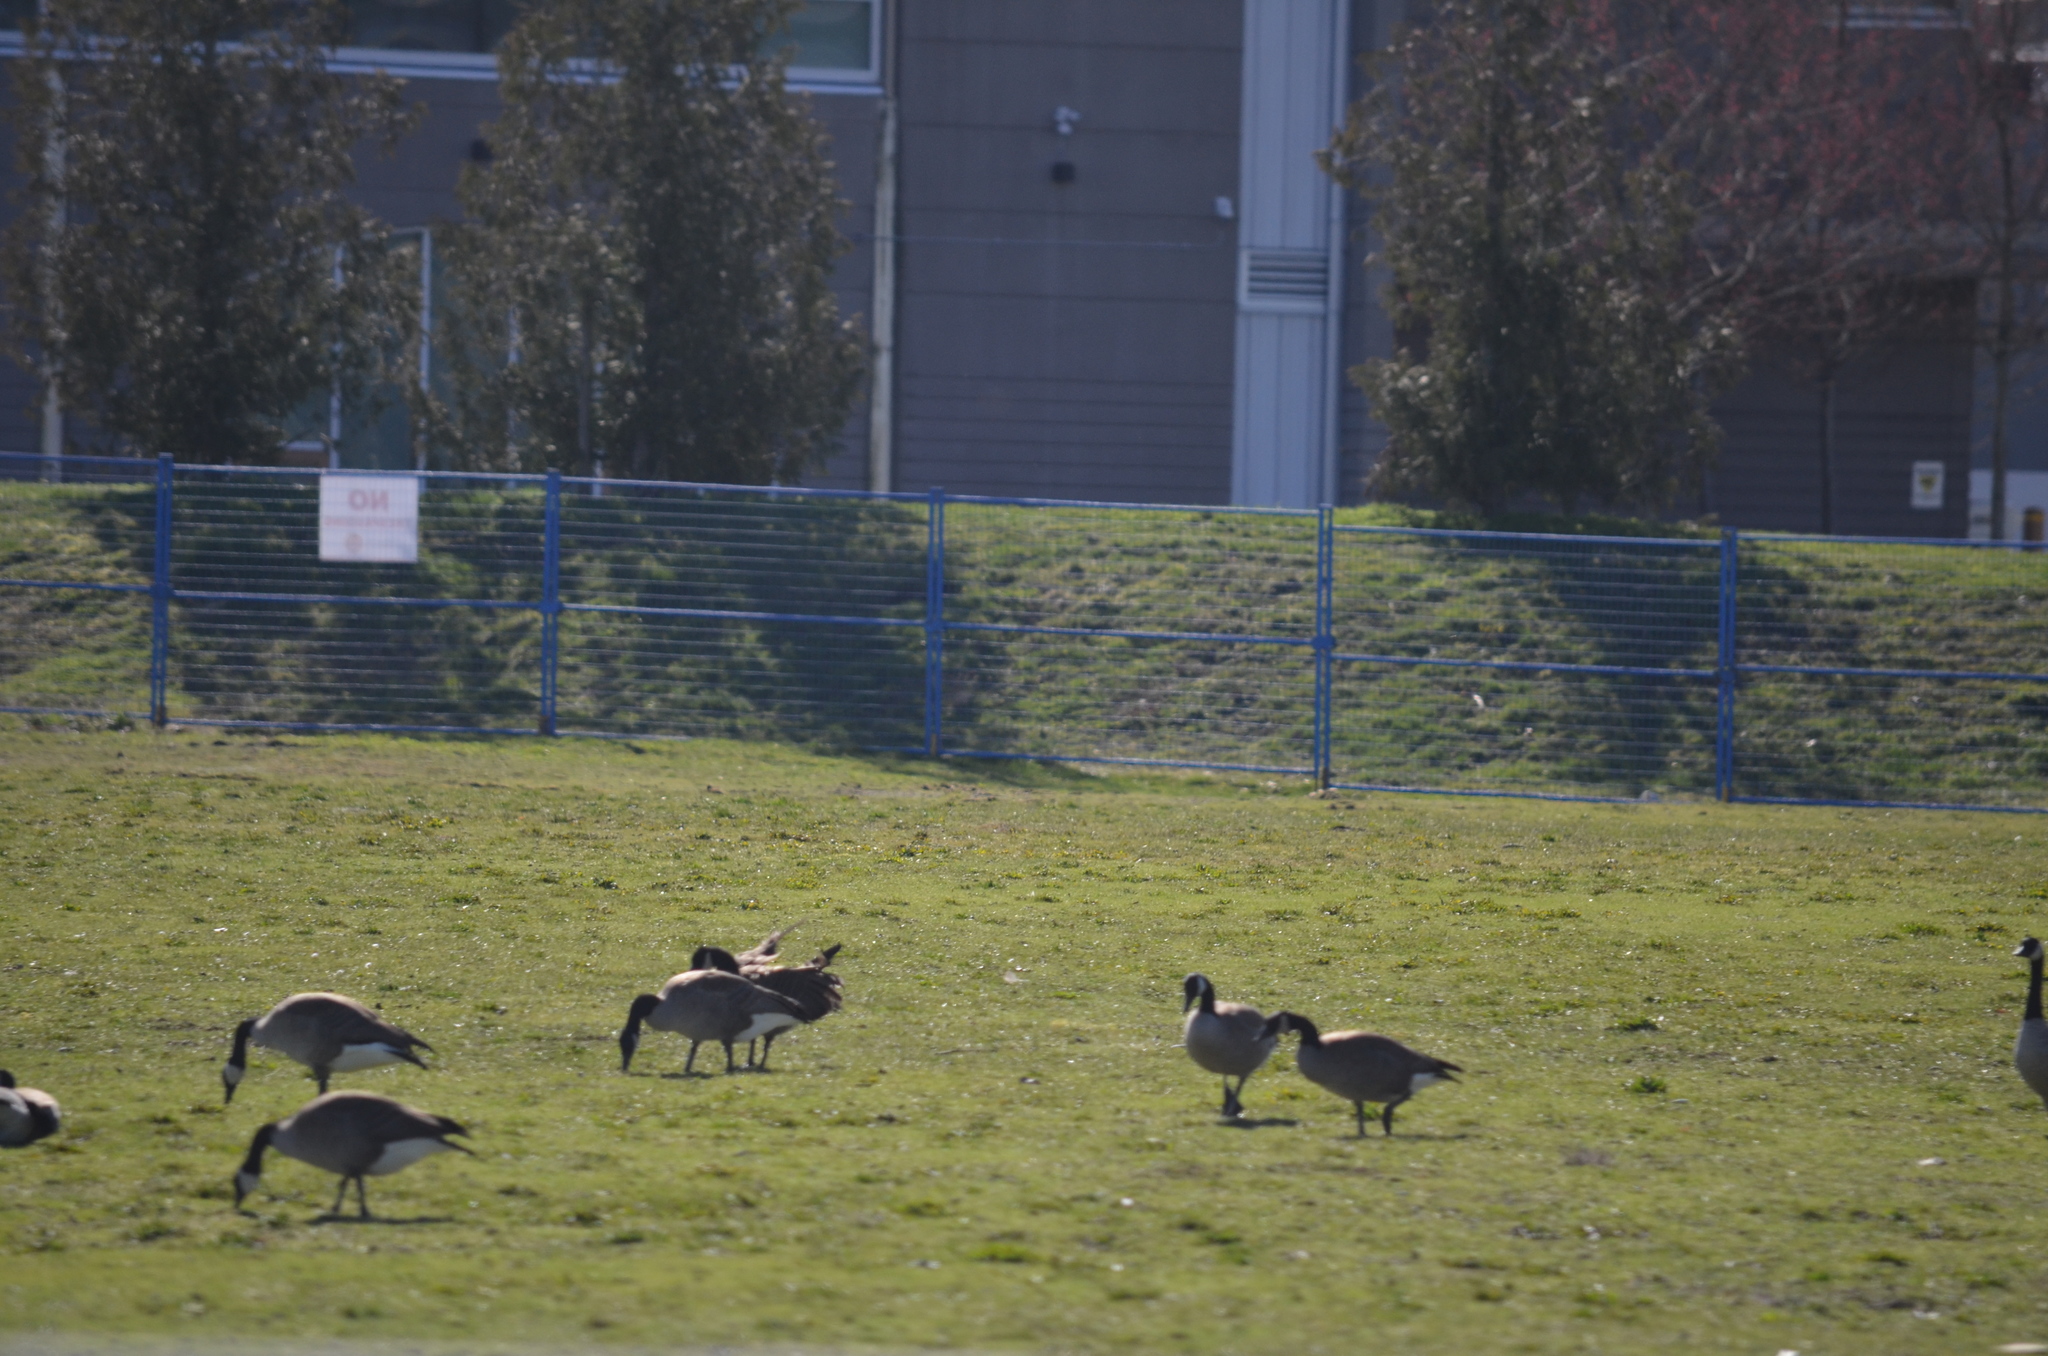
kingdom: Animalia
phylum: Chordata
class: Aves
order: Anseriformes
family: Anatidae
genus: Branta
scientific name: Branta canadensis
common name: Canada goose
